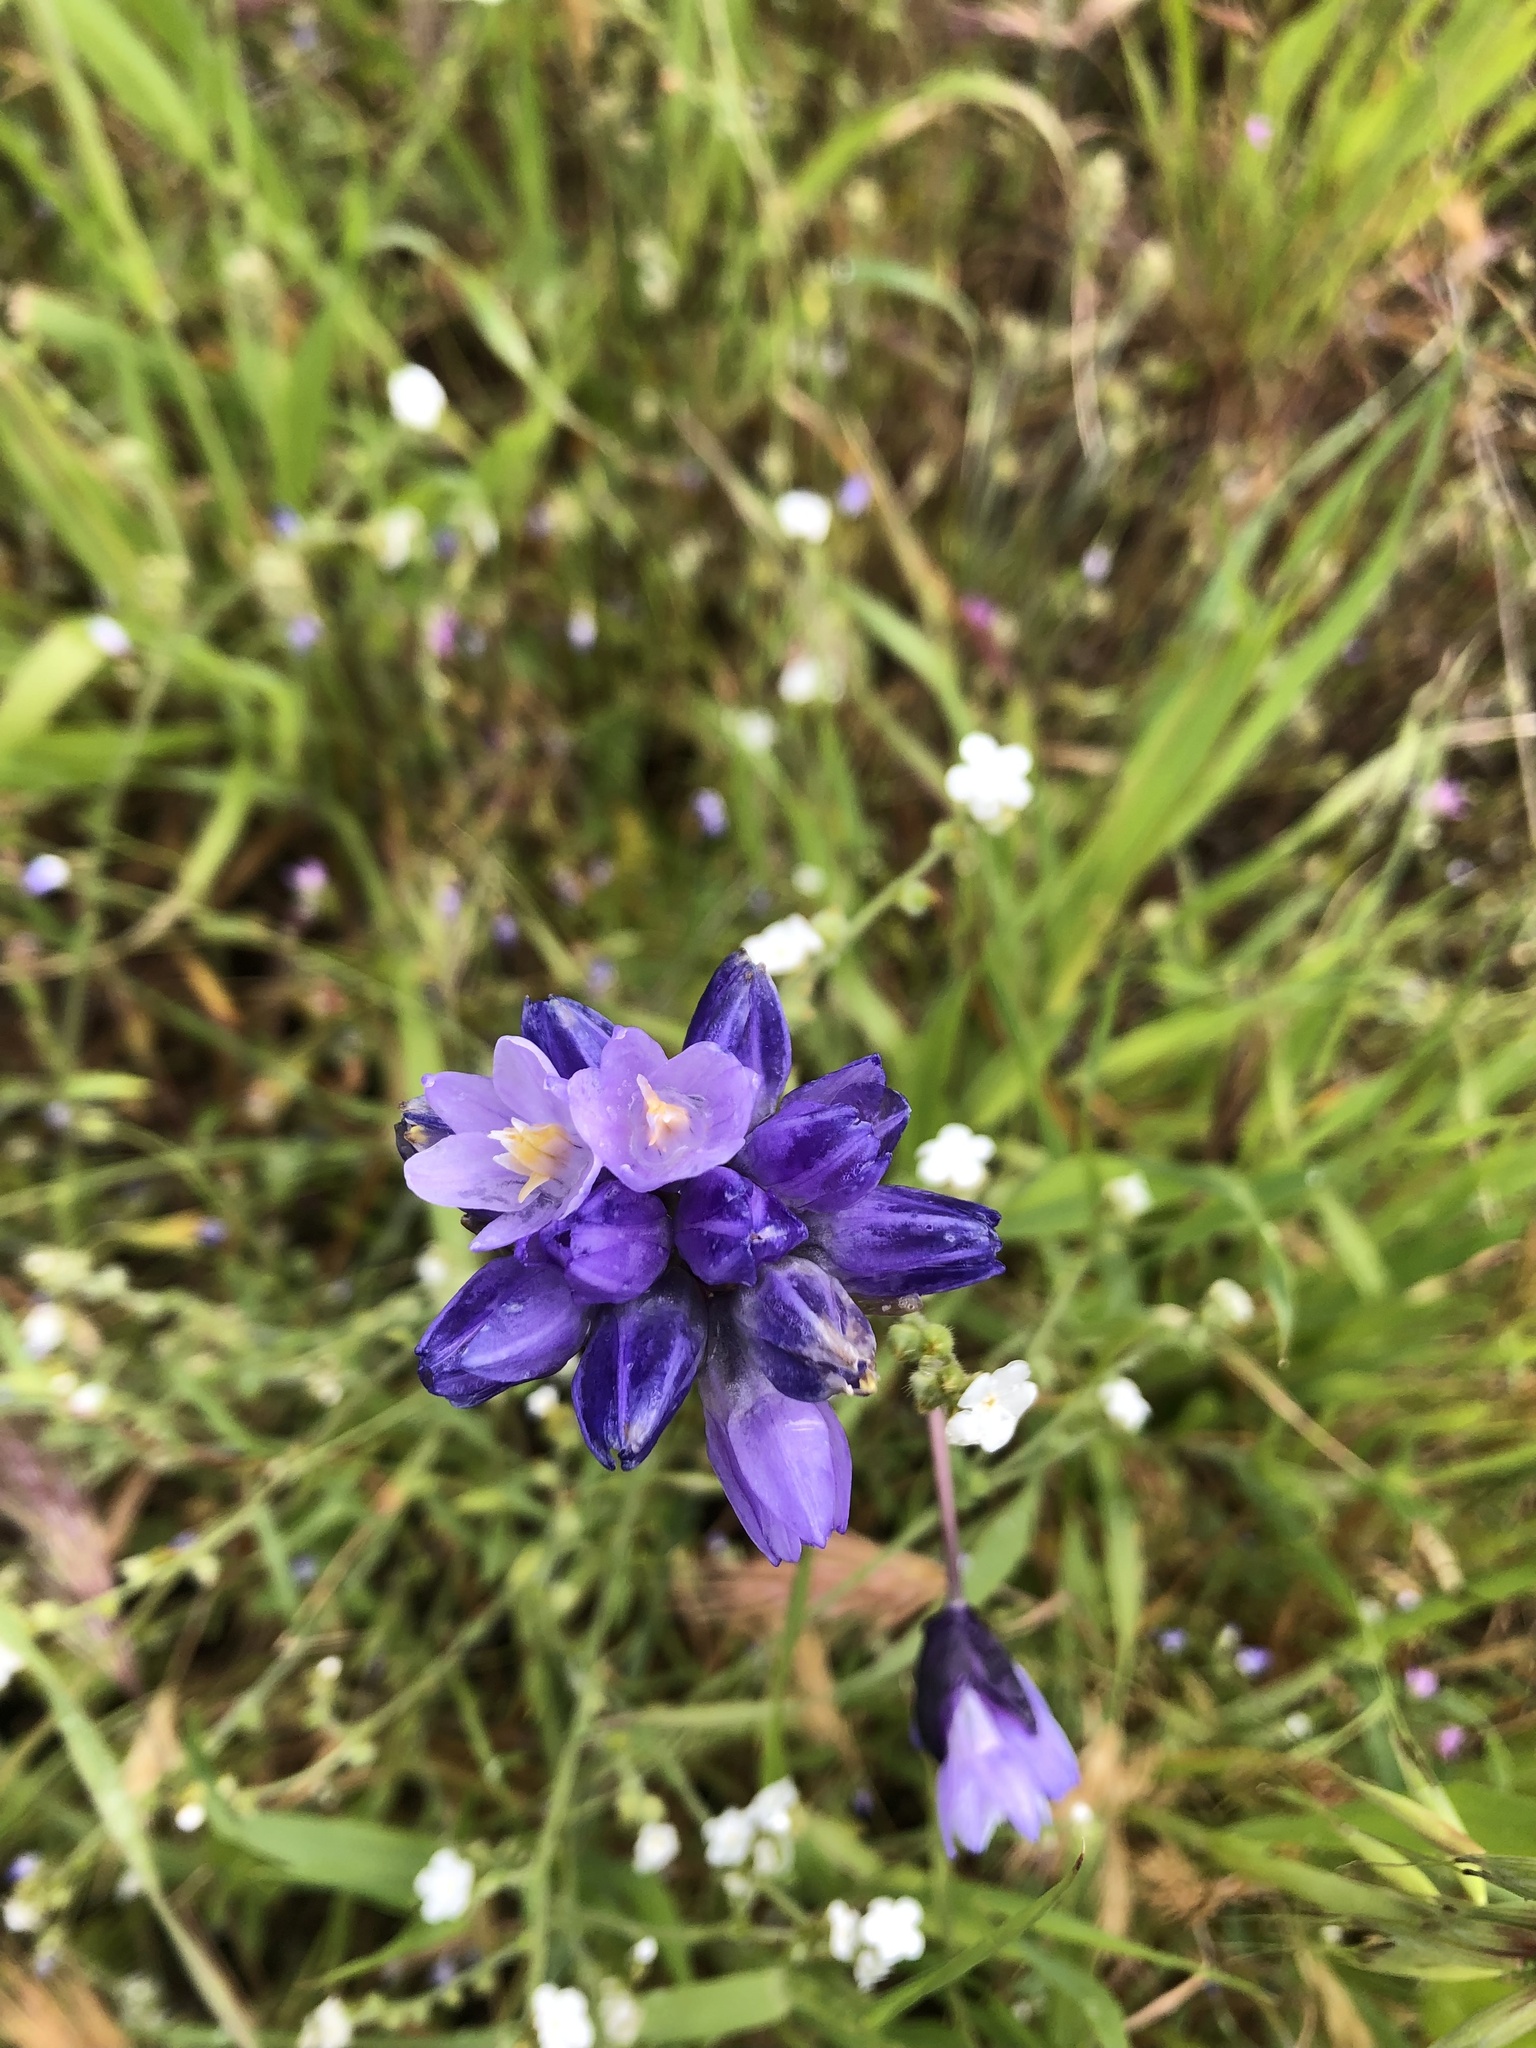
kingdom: Plantae
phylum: Tracheophyta
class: Liliopsida
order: Asparagales
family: Asparagaceae
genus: Dipterostemon
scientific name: Dipterostemon capitatus
